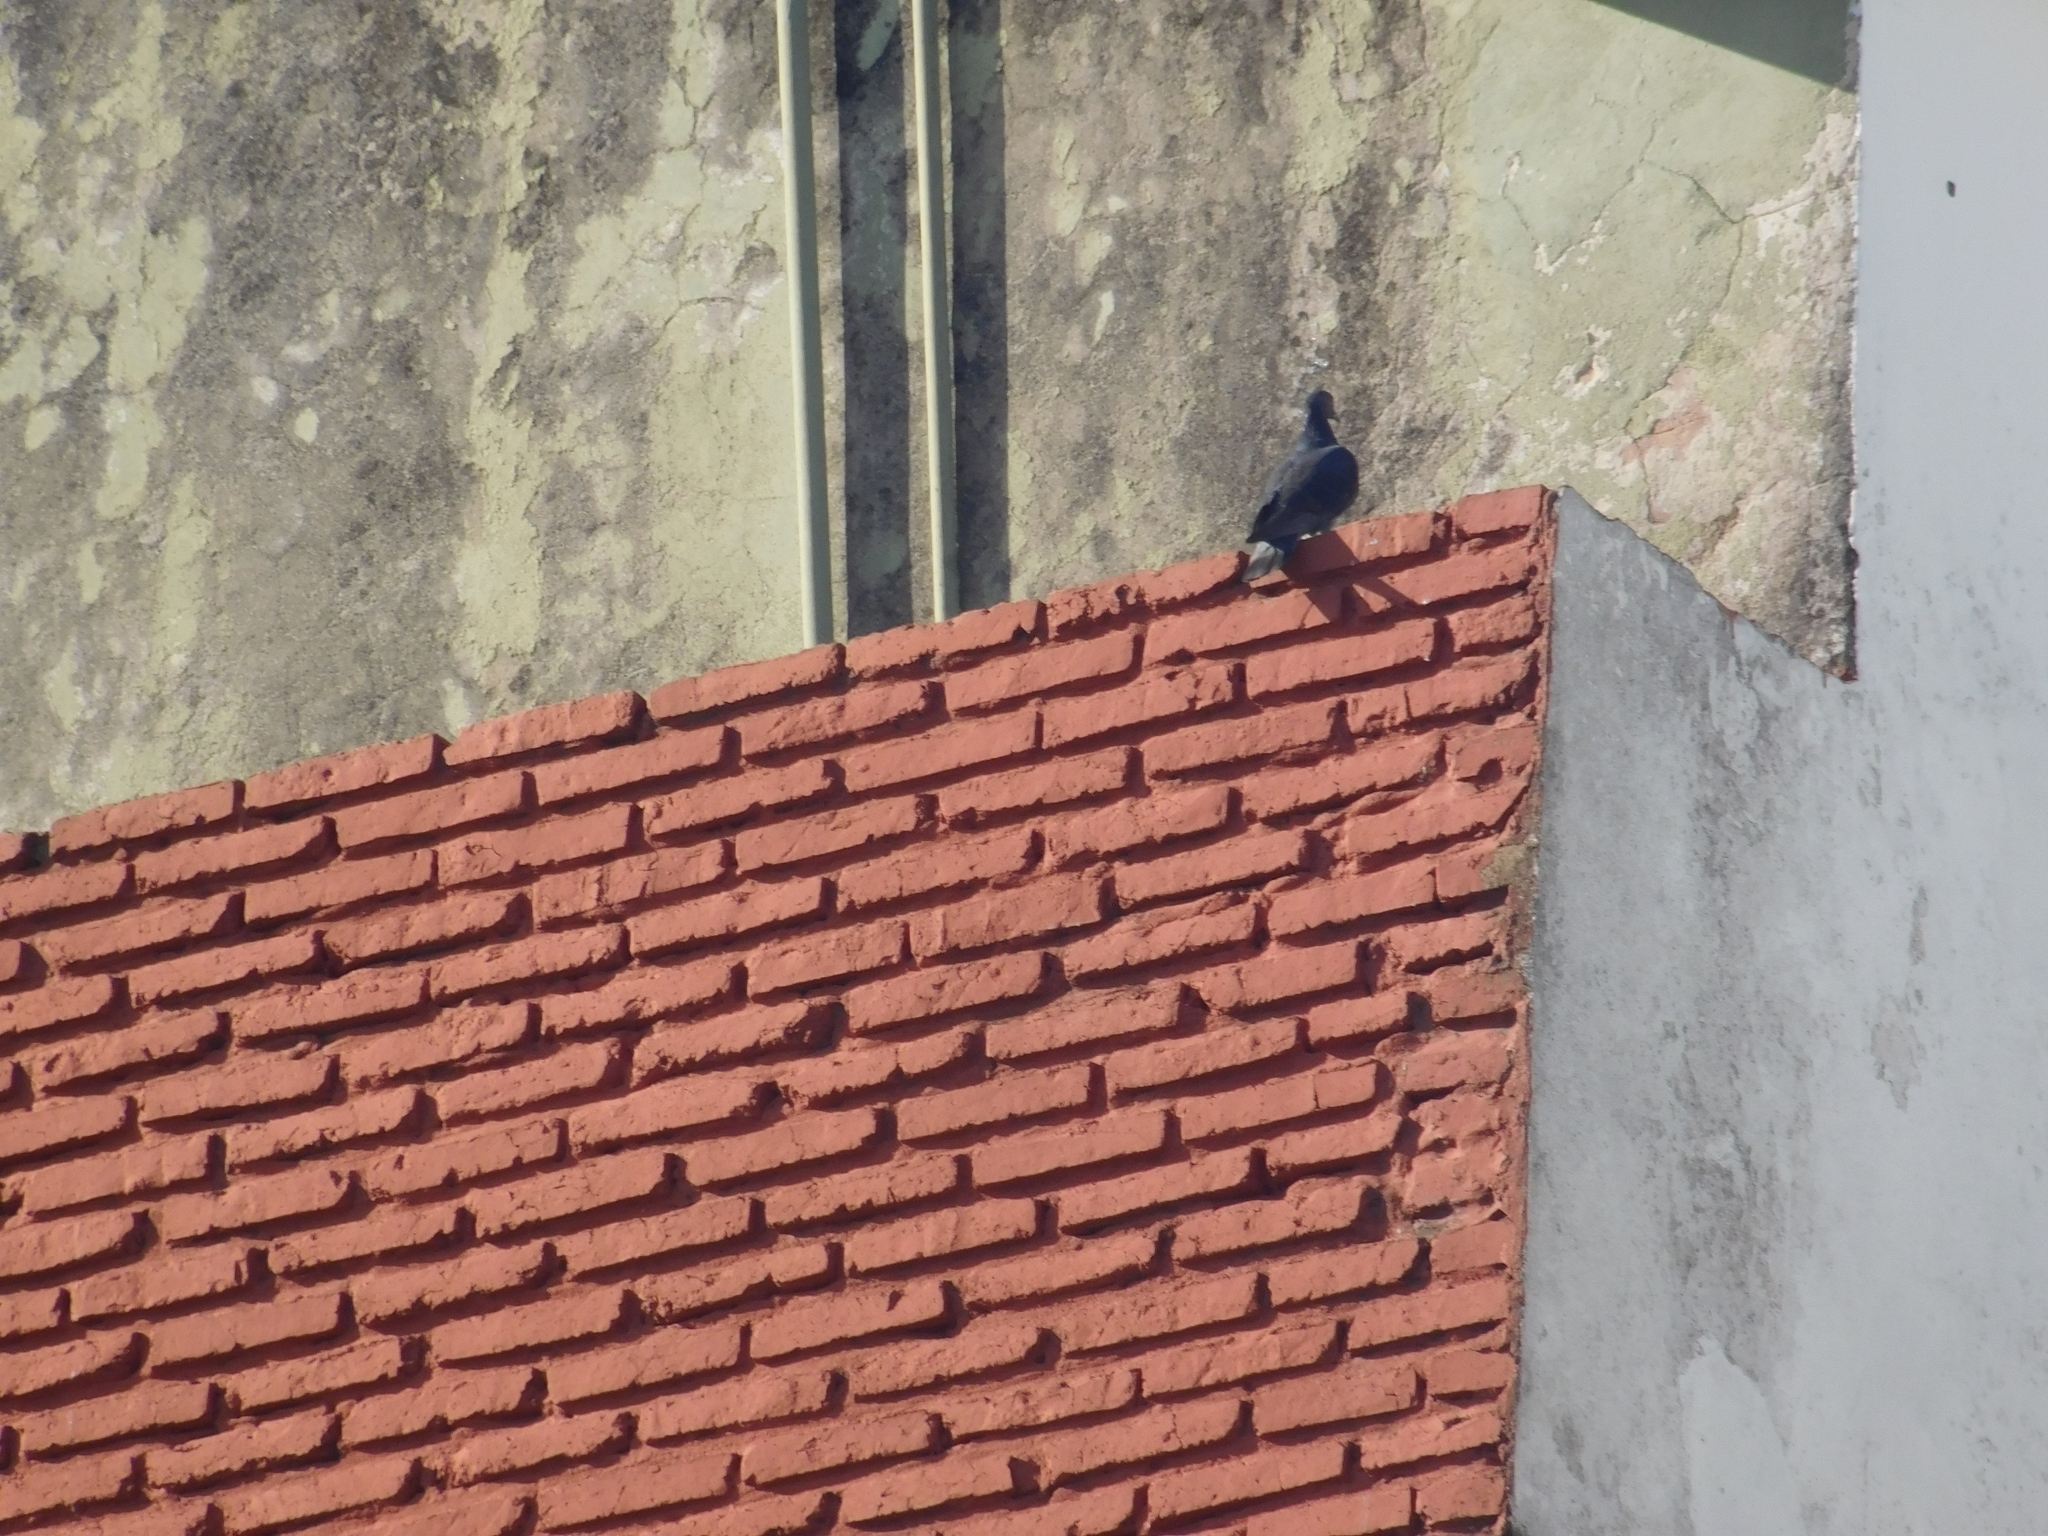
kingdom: Animalia
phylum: Chordata
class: Aves
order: Columbiformes
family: Columbidae
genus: Patagioenas
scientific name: Patagioenas picazuro
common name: Picazuro pigeon
